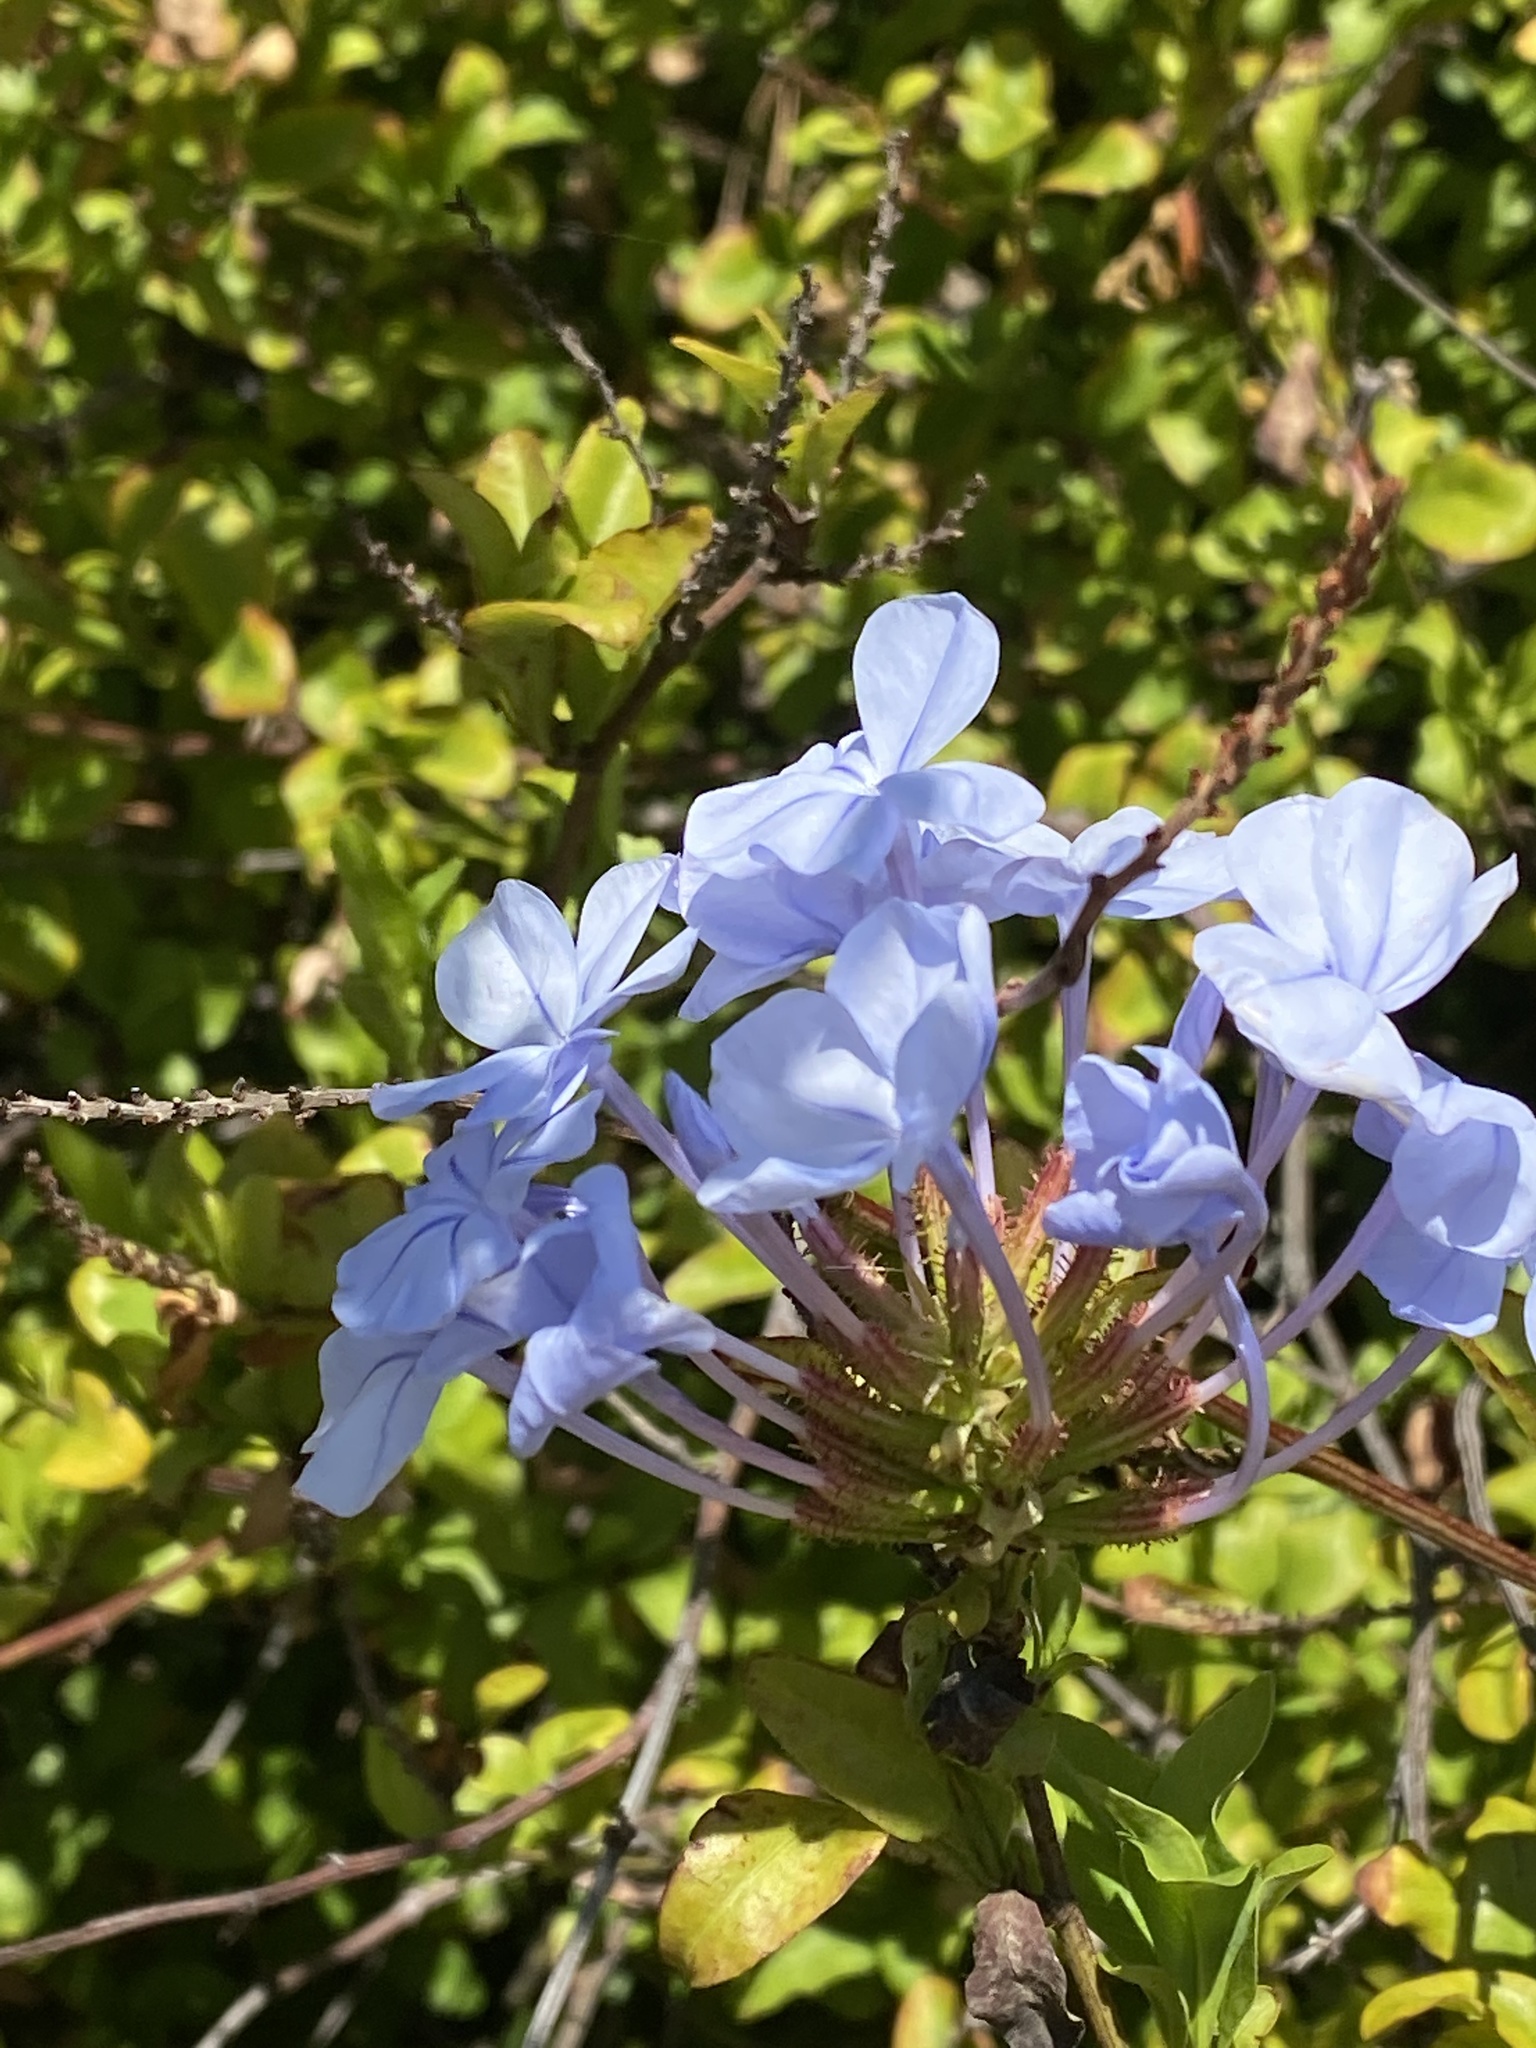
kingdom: Plantae
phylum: Tracheophyta
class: Magnoliopsida
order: Caryophyllales
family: Plumbaginaceae
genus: Plumbago
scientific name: Plumbago auriculata
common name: Cape leadwort
